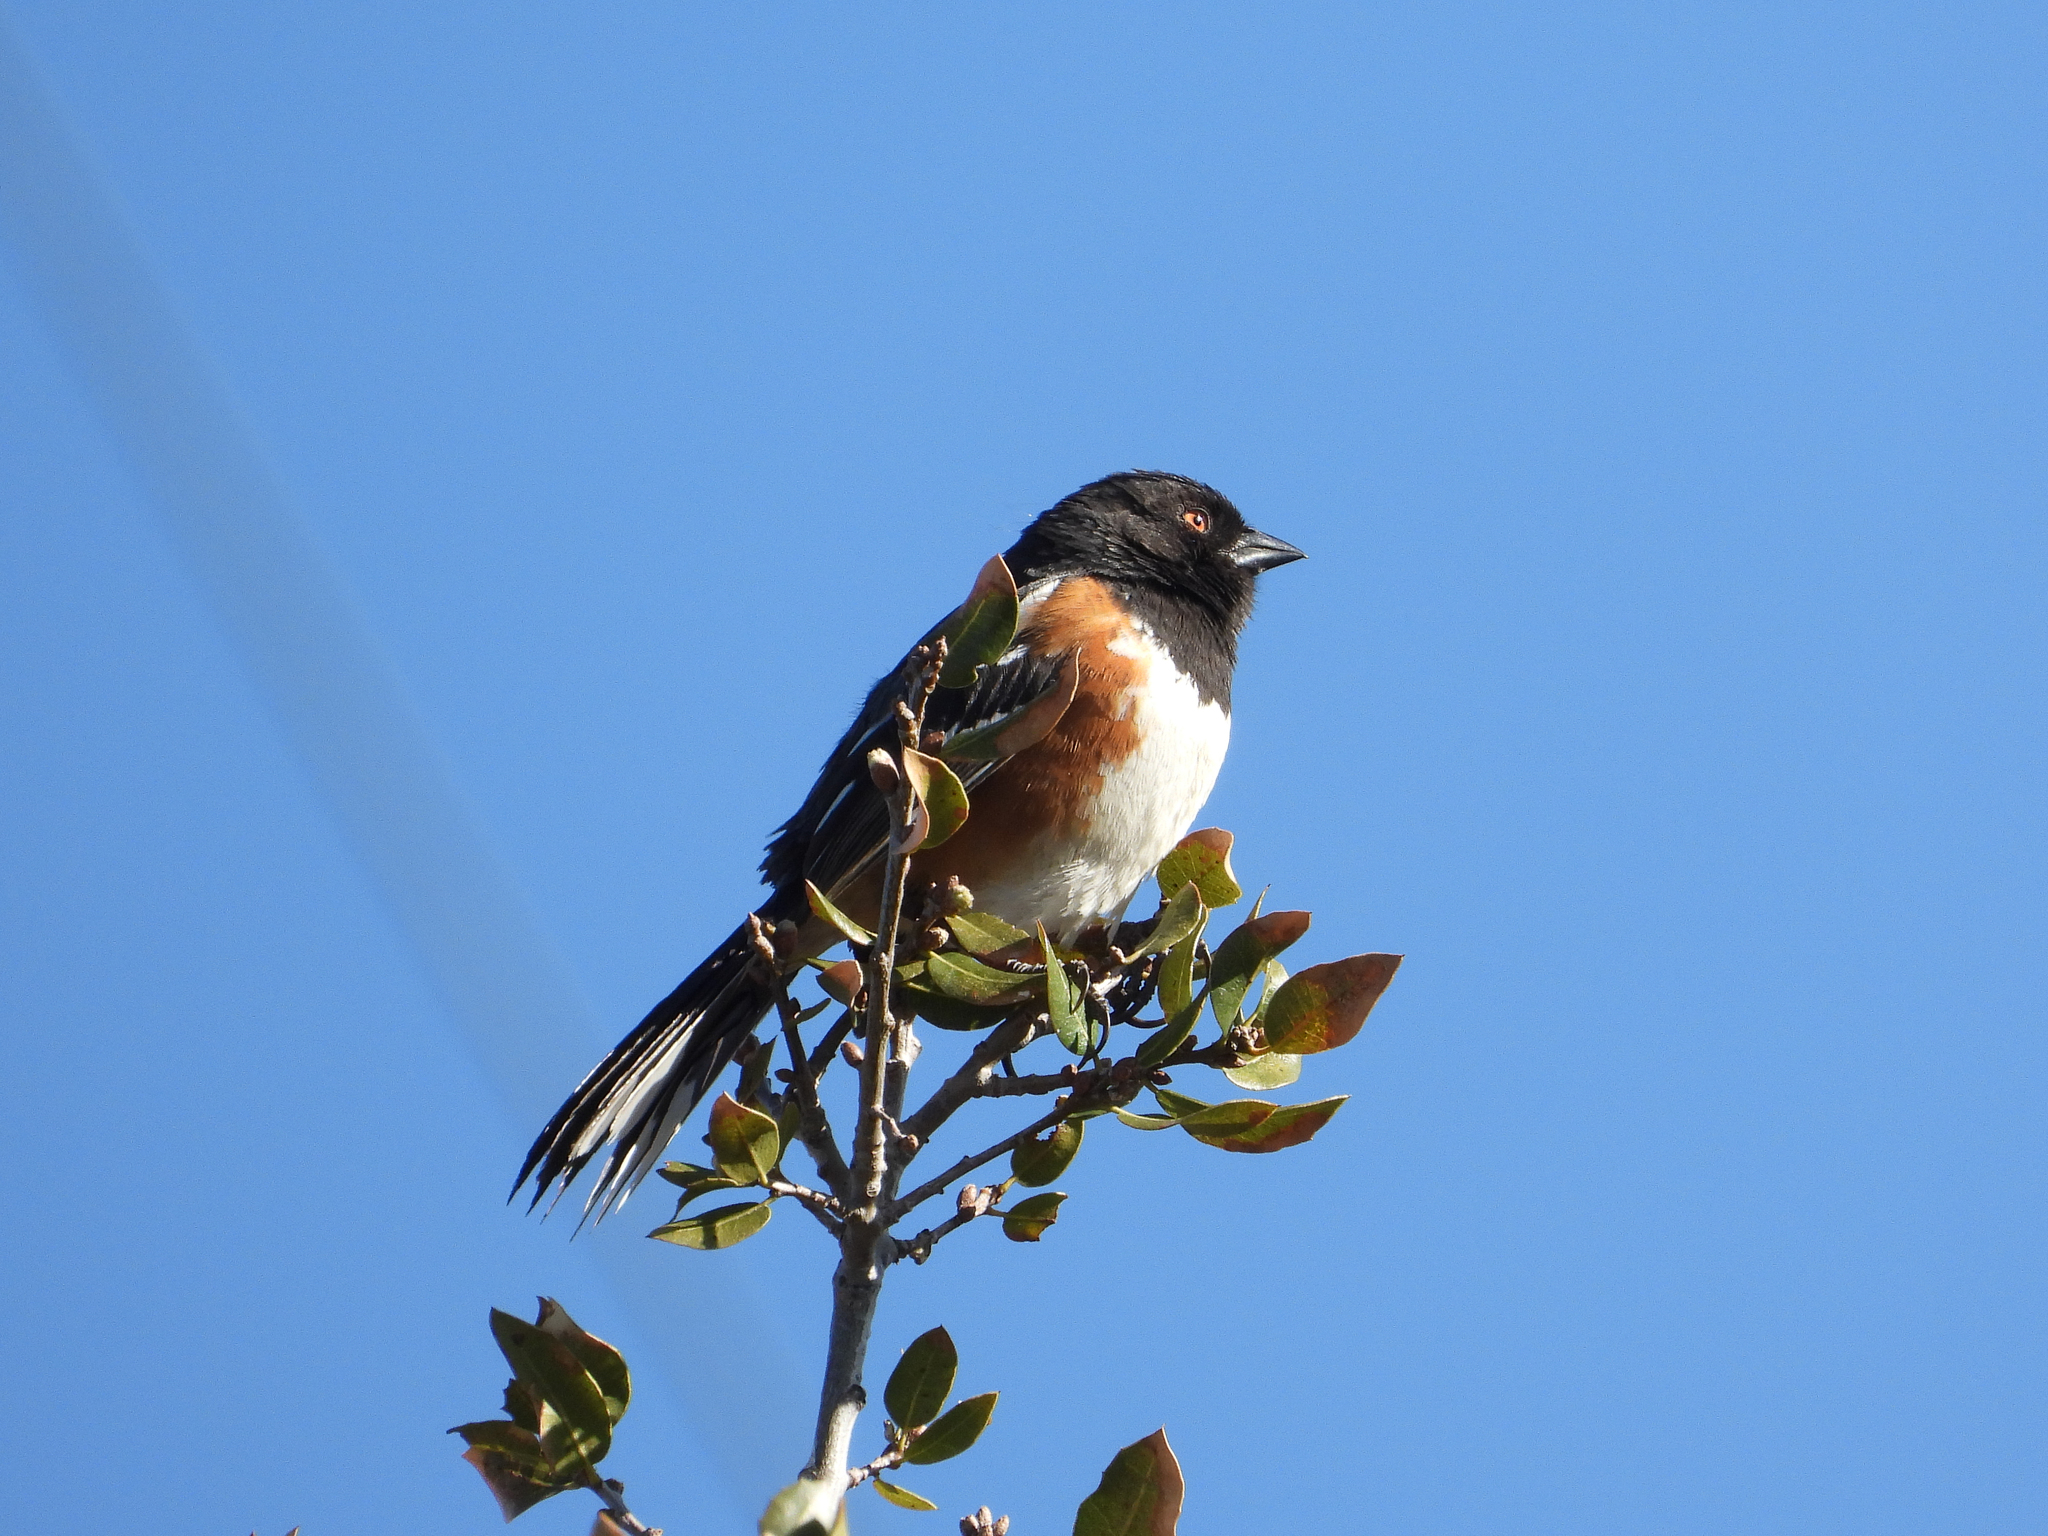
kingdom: Animalia
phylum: Chordata
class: Aves
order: Passeriformes
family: Passerellidae
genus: Pipilo
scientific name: Pipilo maculatus
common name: Spotted towhee
